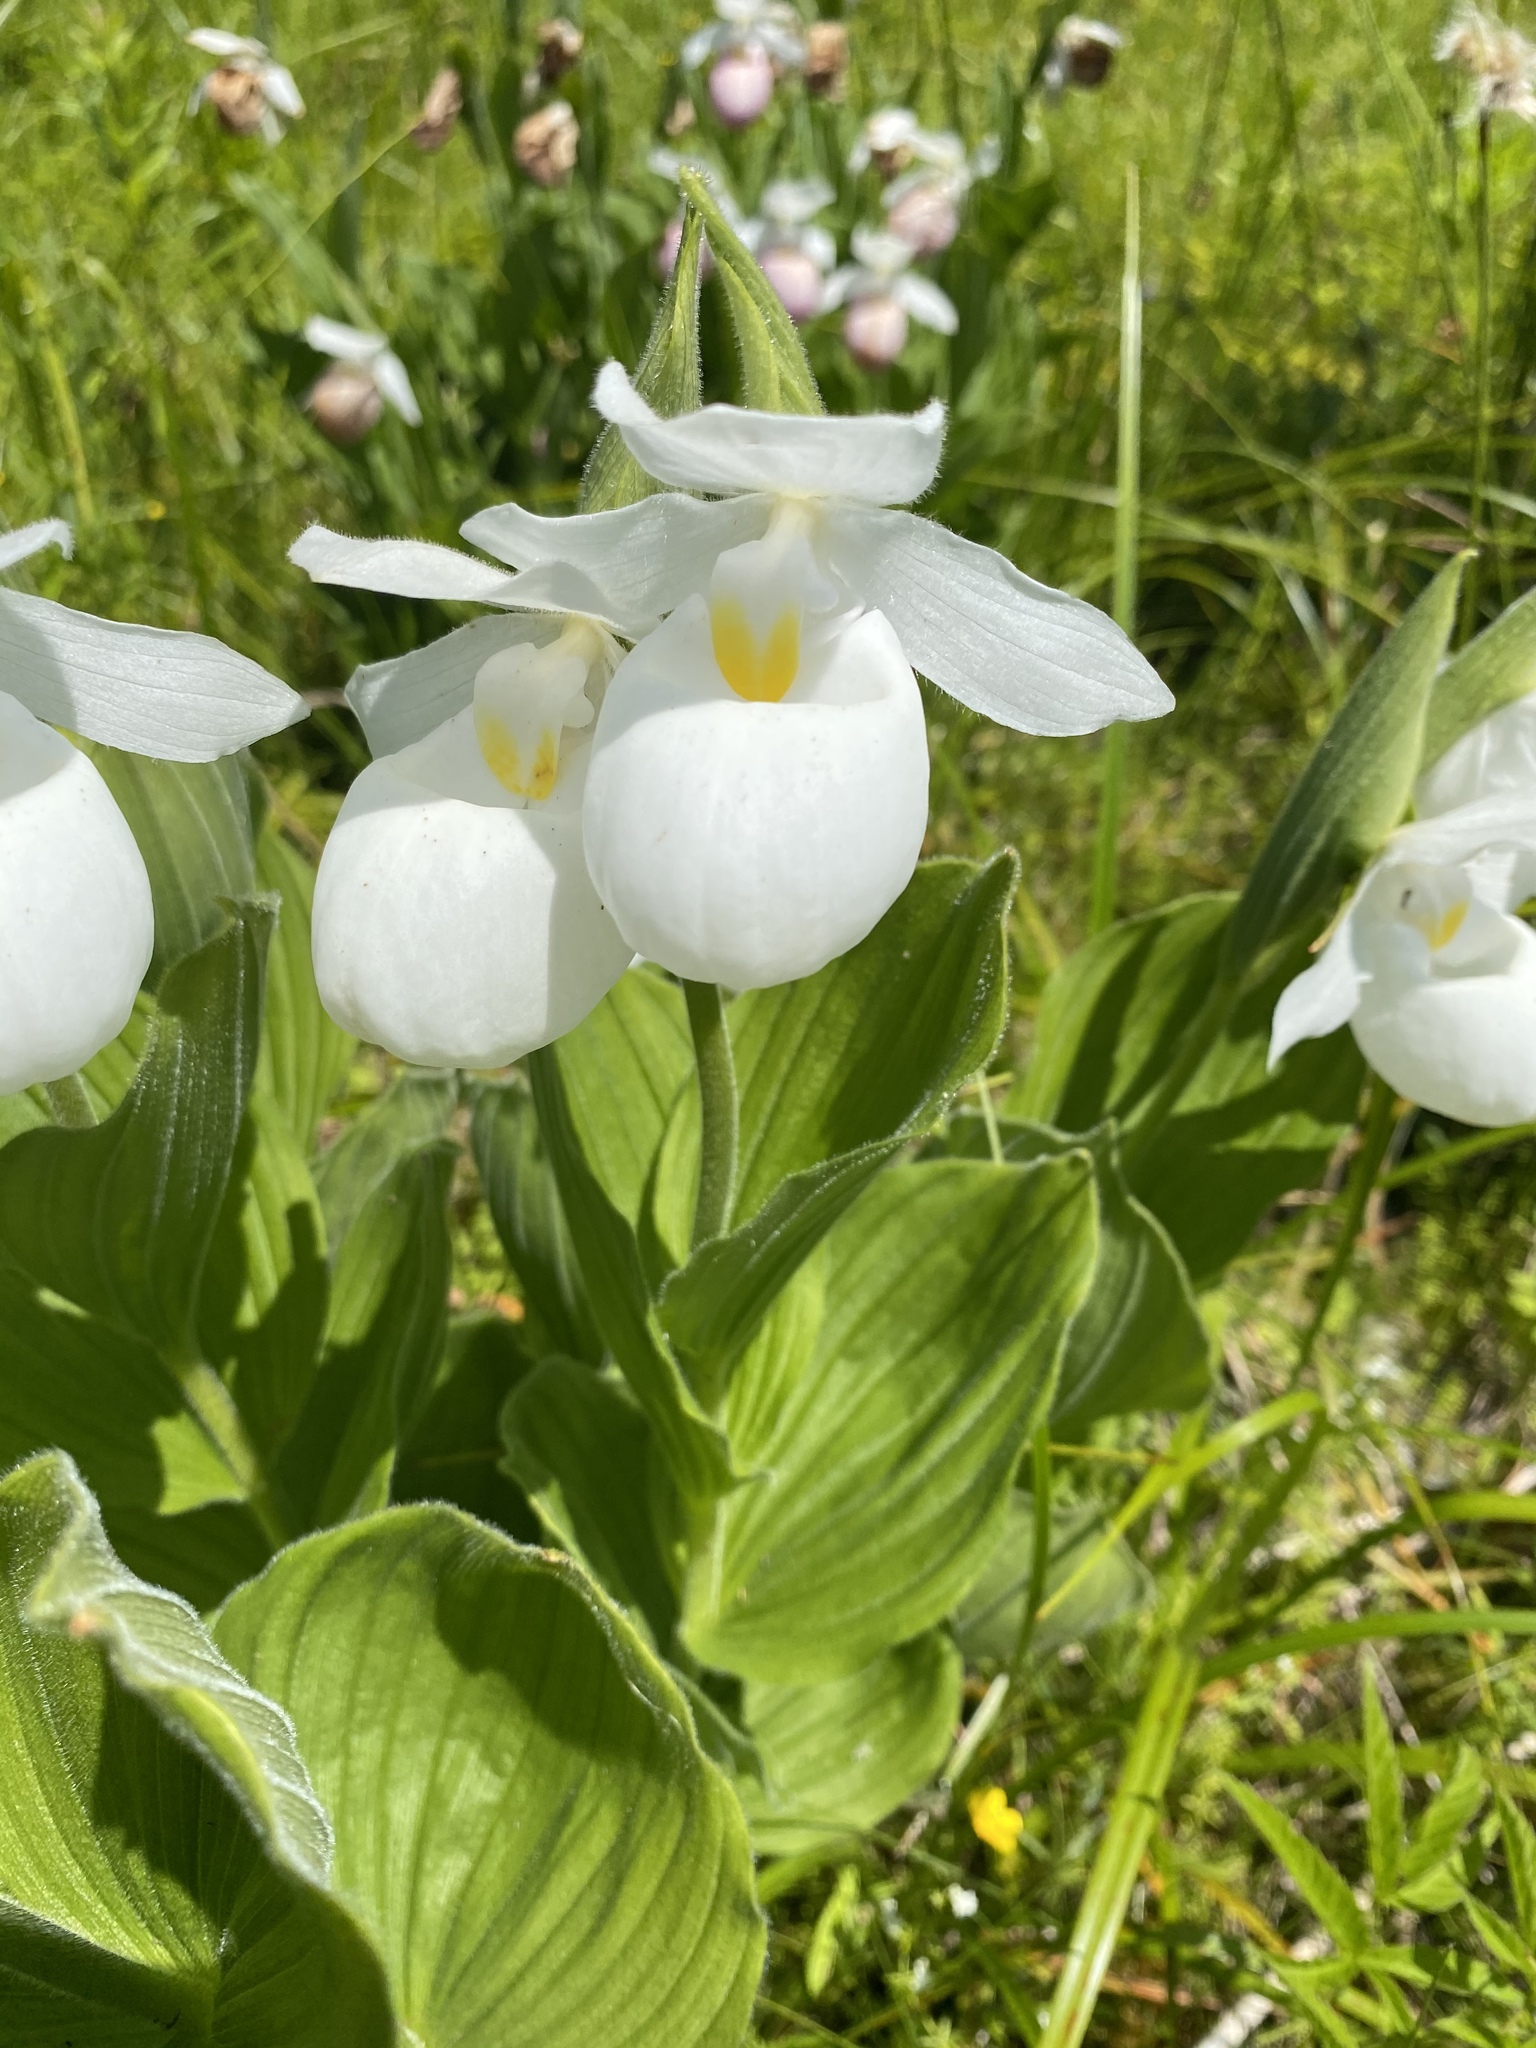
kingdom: Plantae
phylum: Tracheophyta
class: Liliopsida
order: Asparagales
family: Orchidaceae
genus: Cypripedium
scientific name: Cypripedium reginae
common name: Queen lady's-slipper
